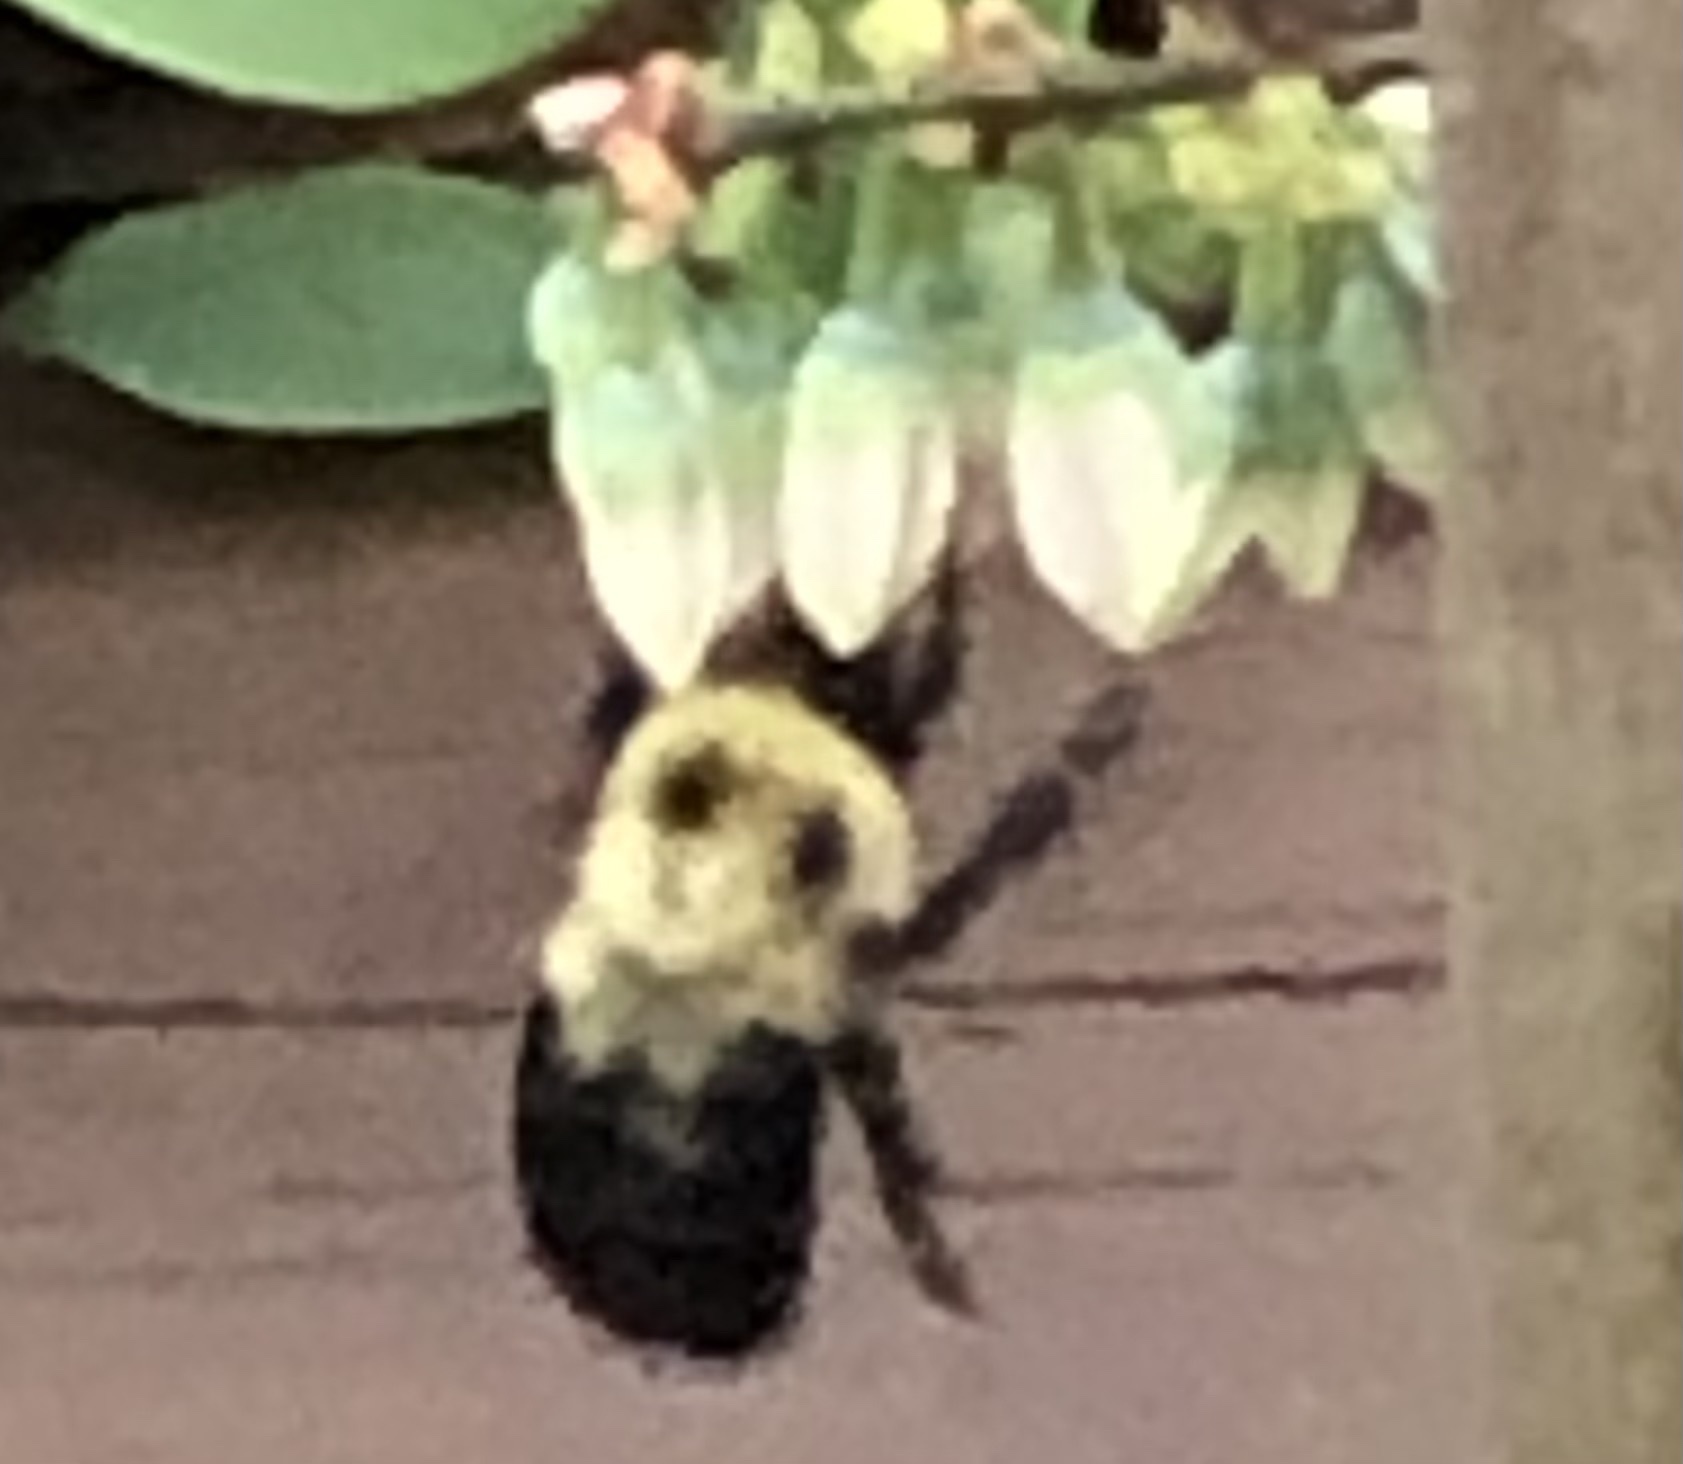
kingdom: Animalia
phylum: Arthropoda
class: Insecta
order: Hymenoptera
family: Apidae
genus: Bombus
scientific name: Bombus bimaculatus
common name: Two-spotted bumble bee
